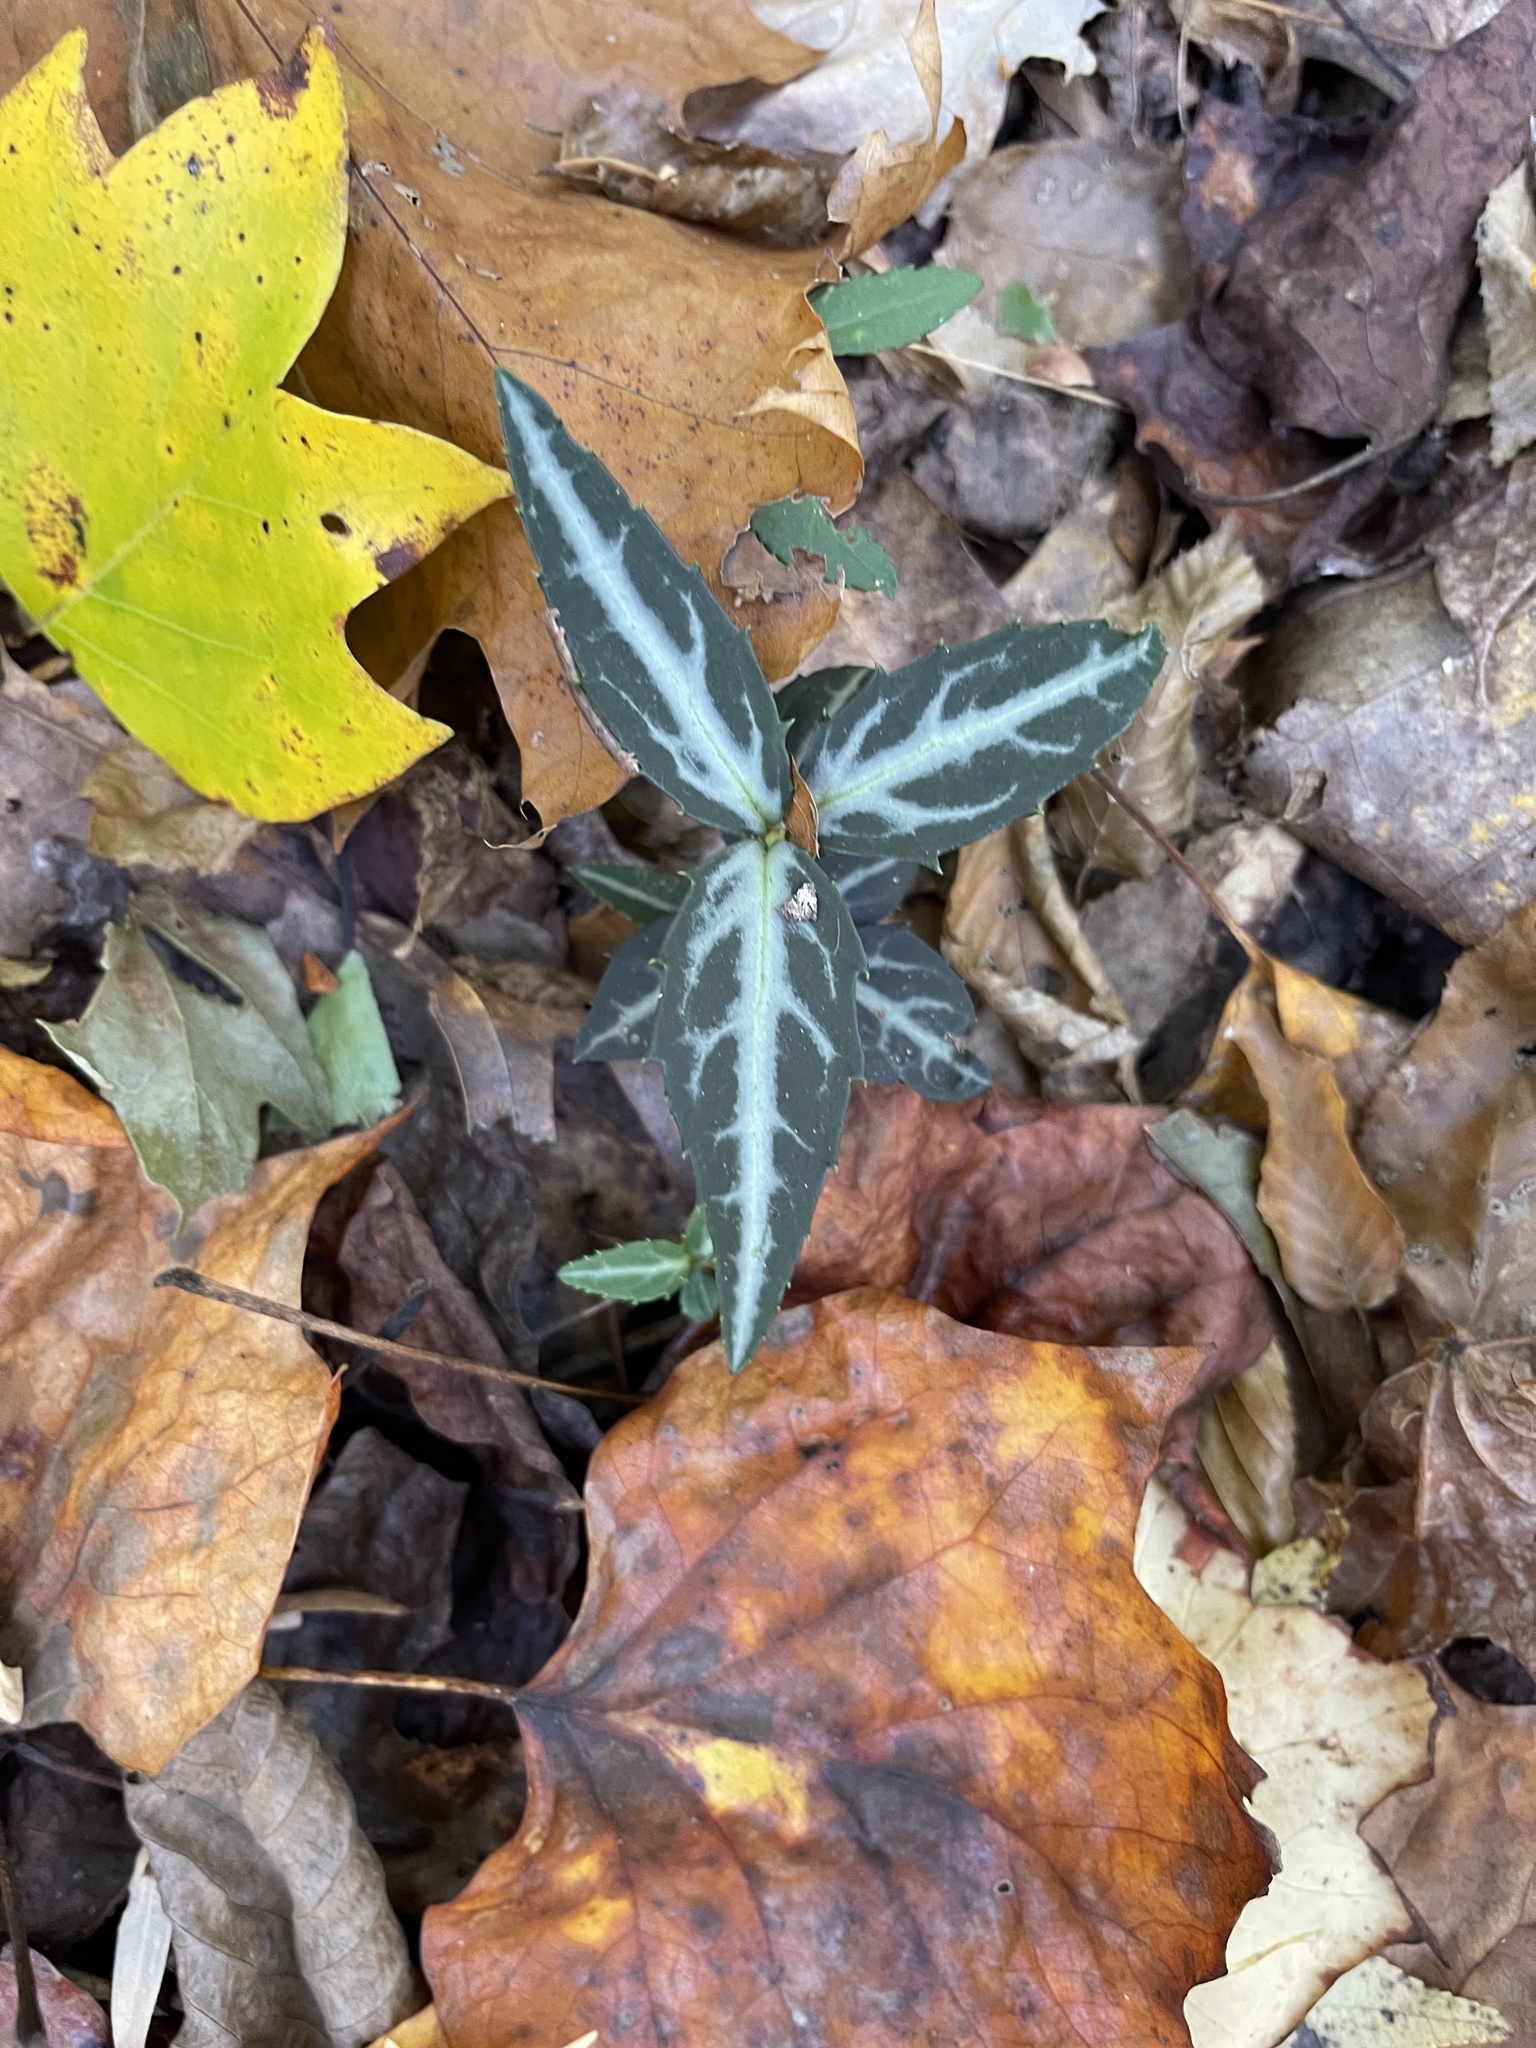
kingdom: Plantae
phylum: Tracheophyta
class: Magnoliopsida
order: Ericales
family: Ericaceae
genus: Chimaphila
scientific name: Chimaphila maculata
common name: Spotted pipsissewa
